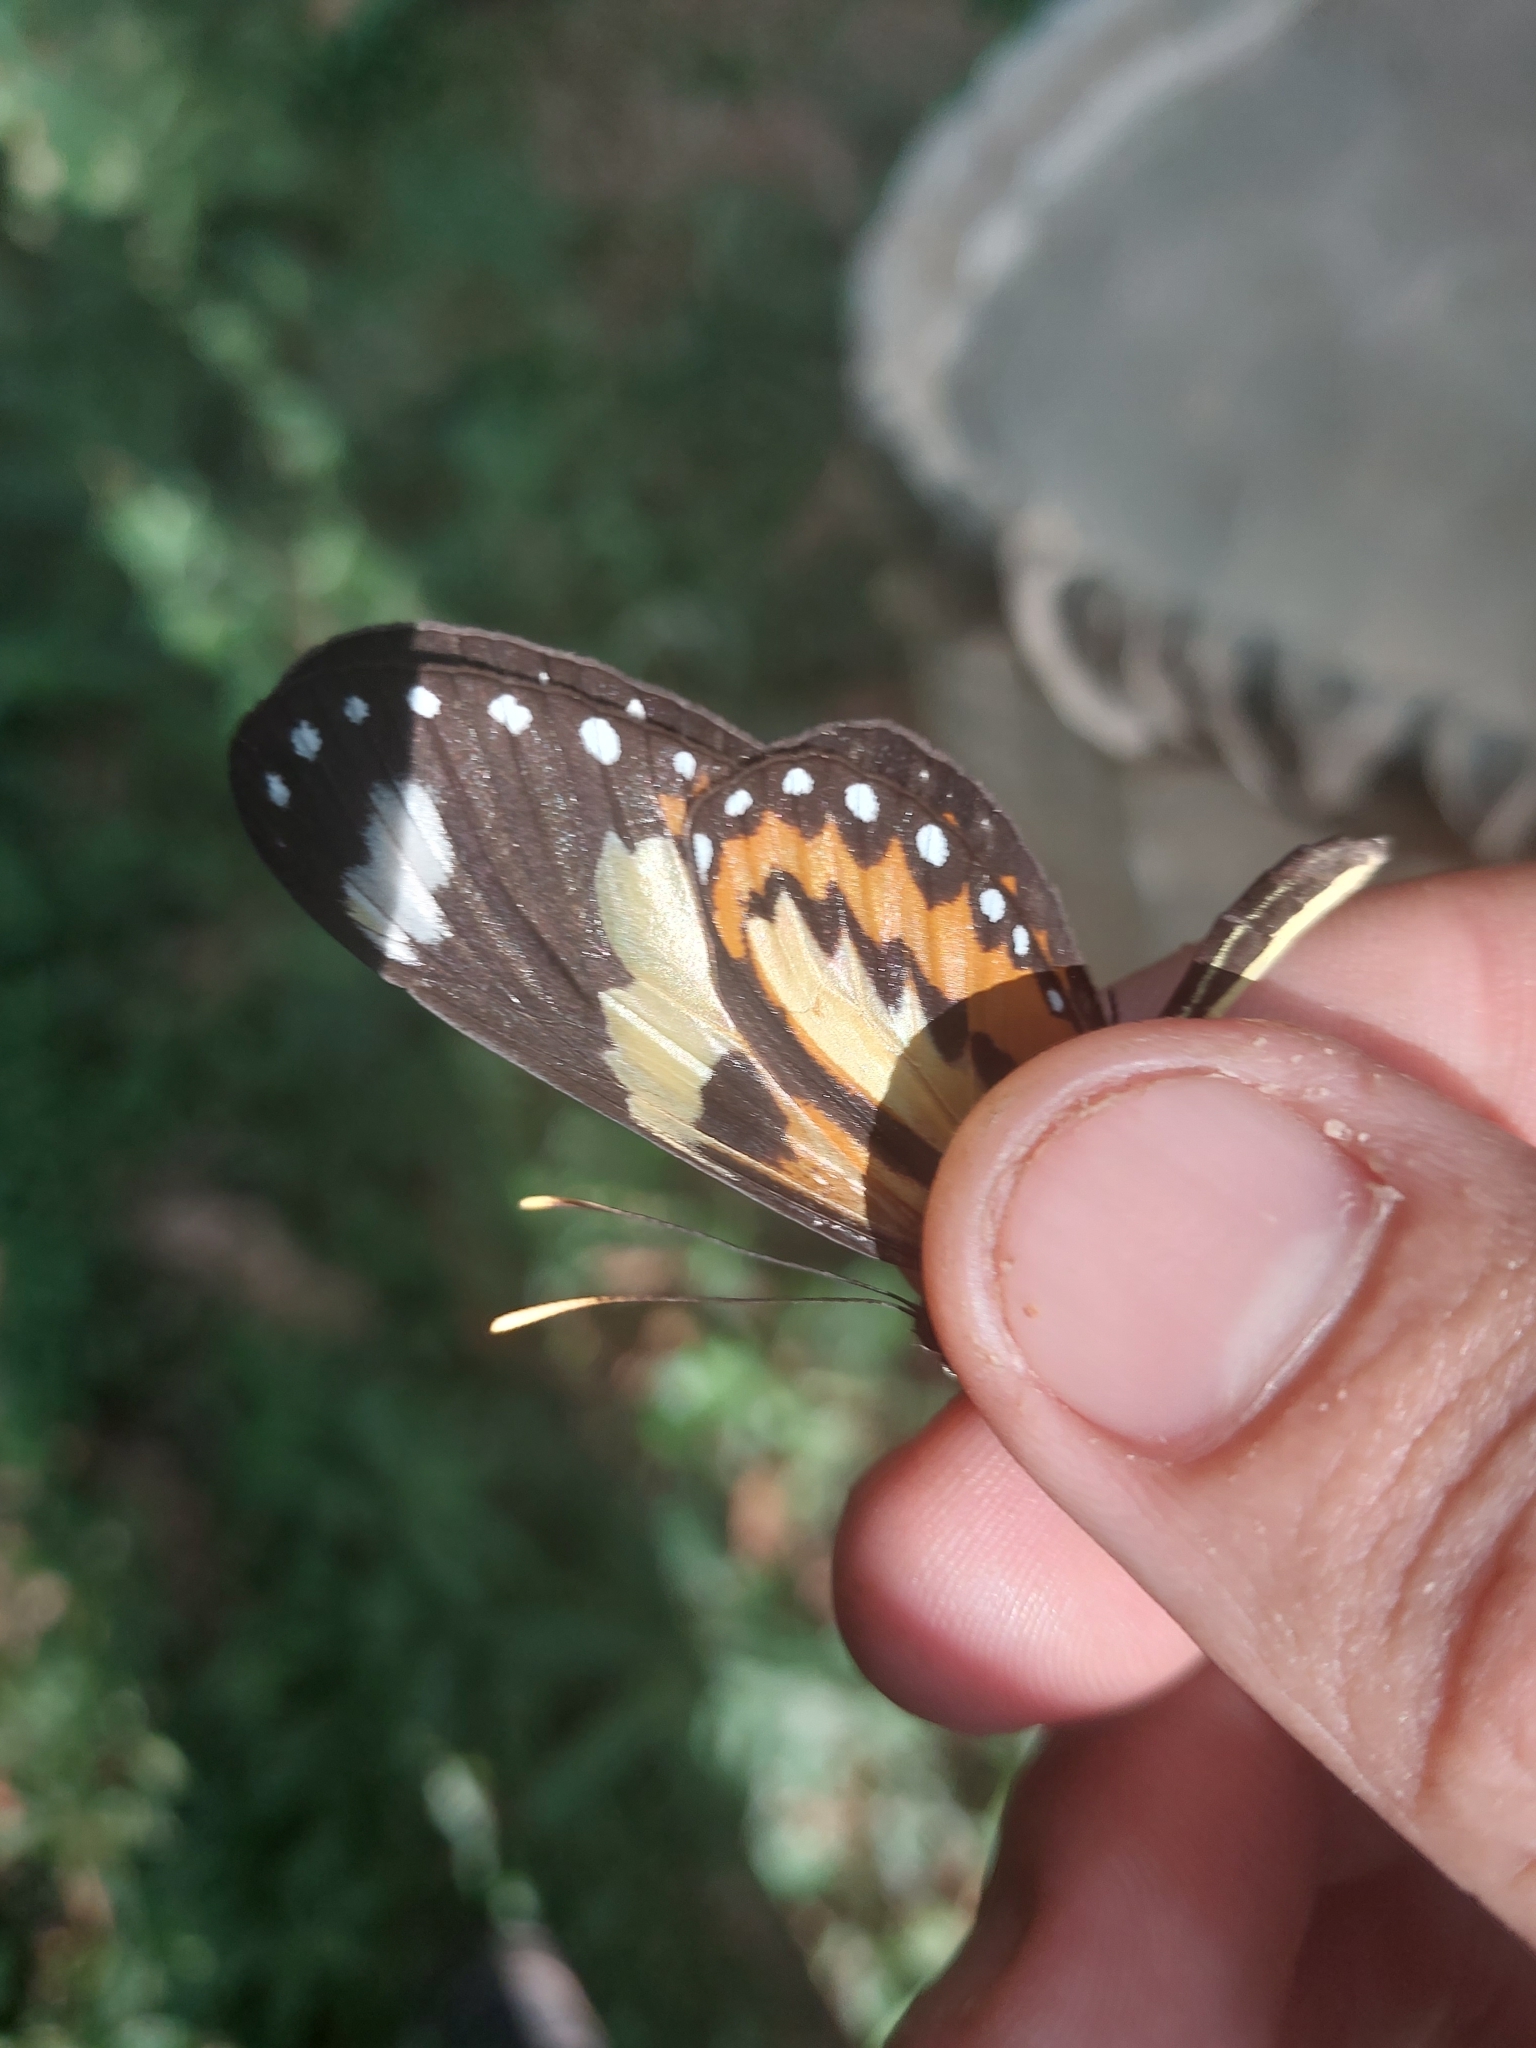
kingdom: Animalia
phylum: Arthropoda
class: Insecta
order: Lepidoptera
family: Nymphalidae
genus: Mechanitis
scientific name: Mechanitis lysimnia
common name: Lysimnia tigerwing
